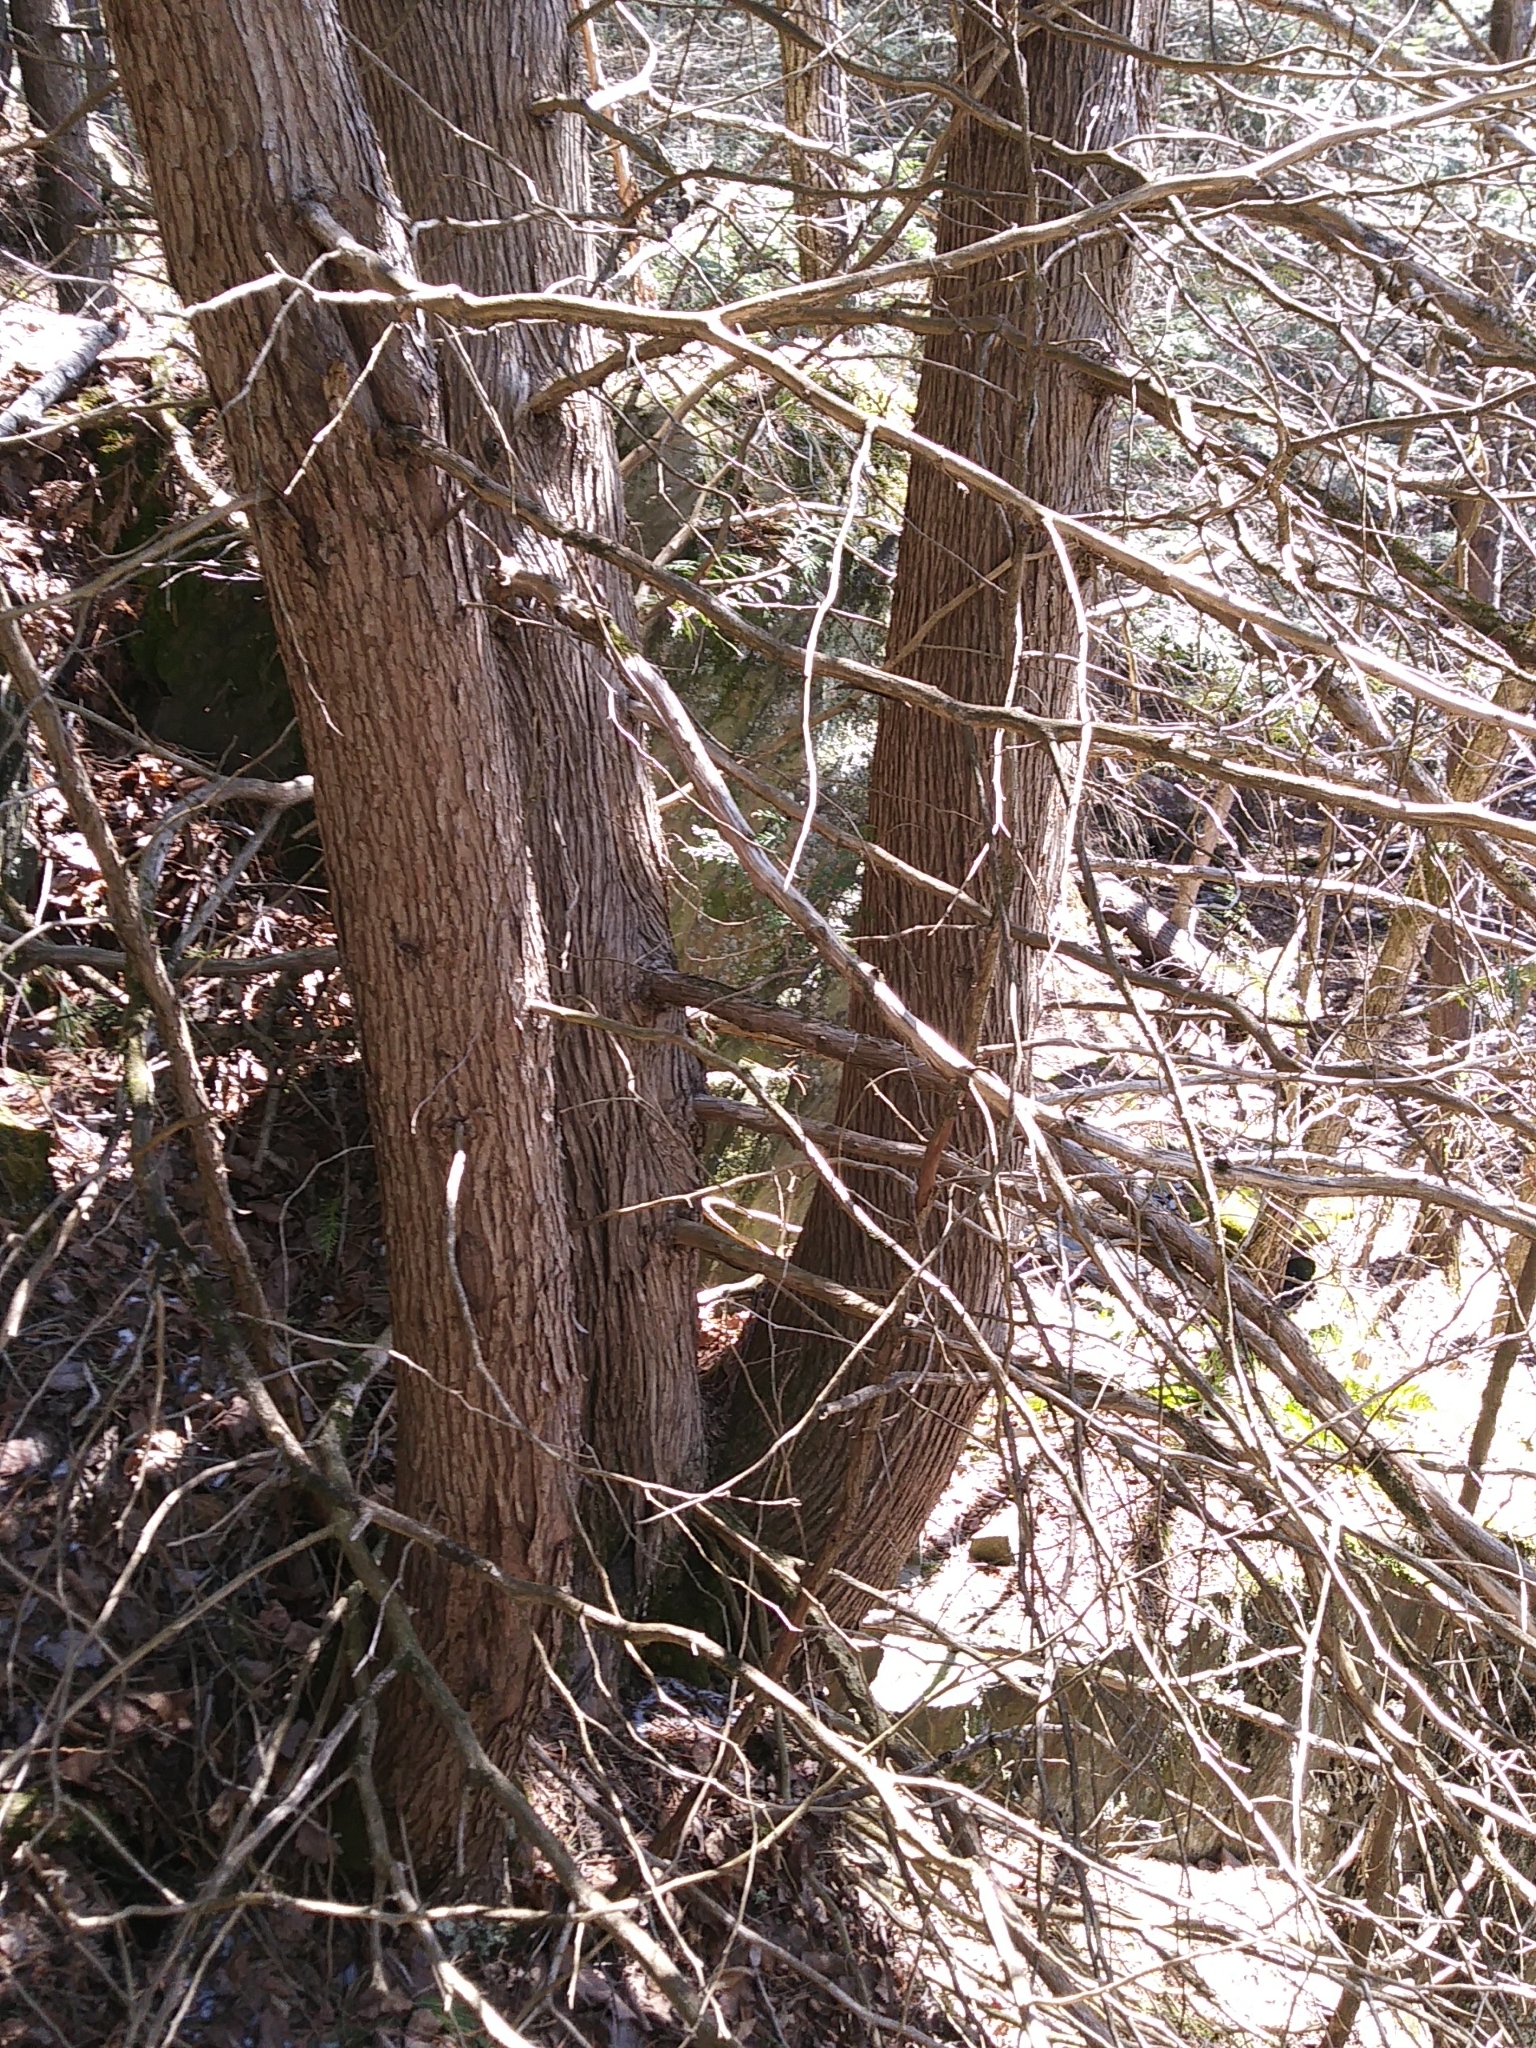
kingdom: Plantae
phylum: Tracheophyta
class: Pinopsida
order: Pinales
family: Cupressaceae
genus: Thuja
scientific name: Thuja occidentalis
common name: Northern white-cedar
